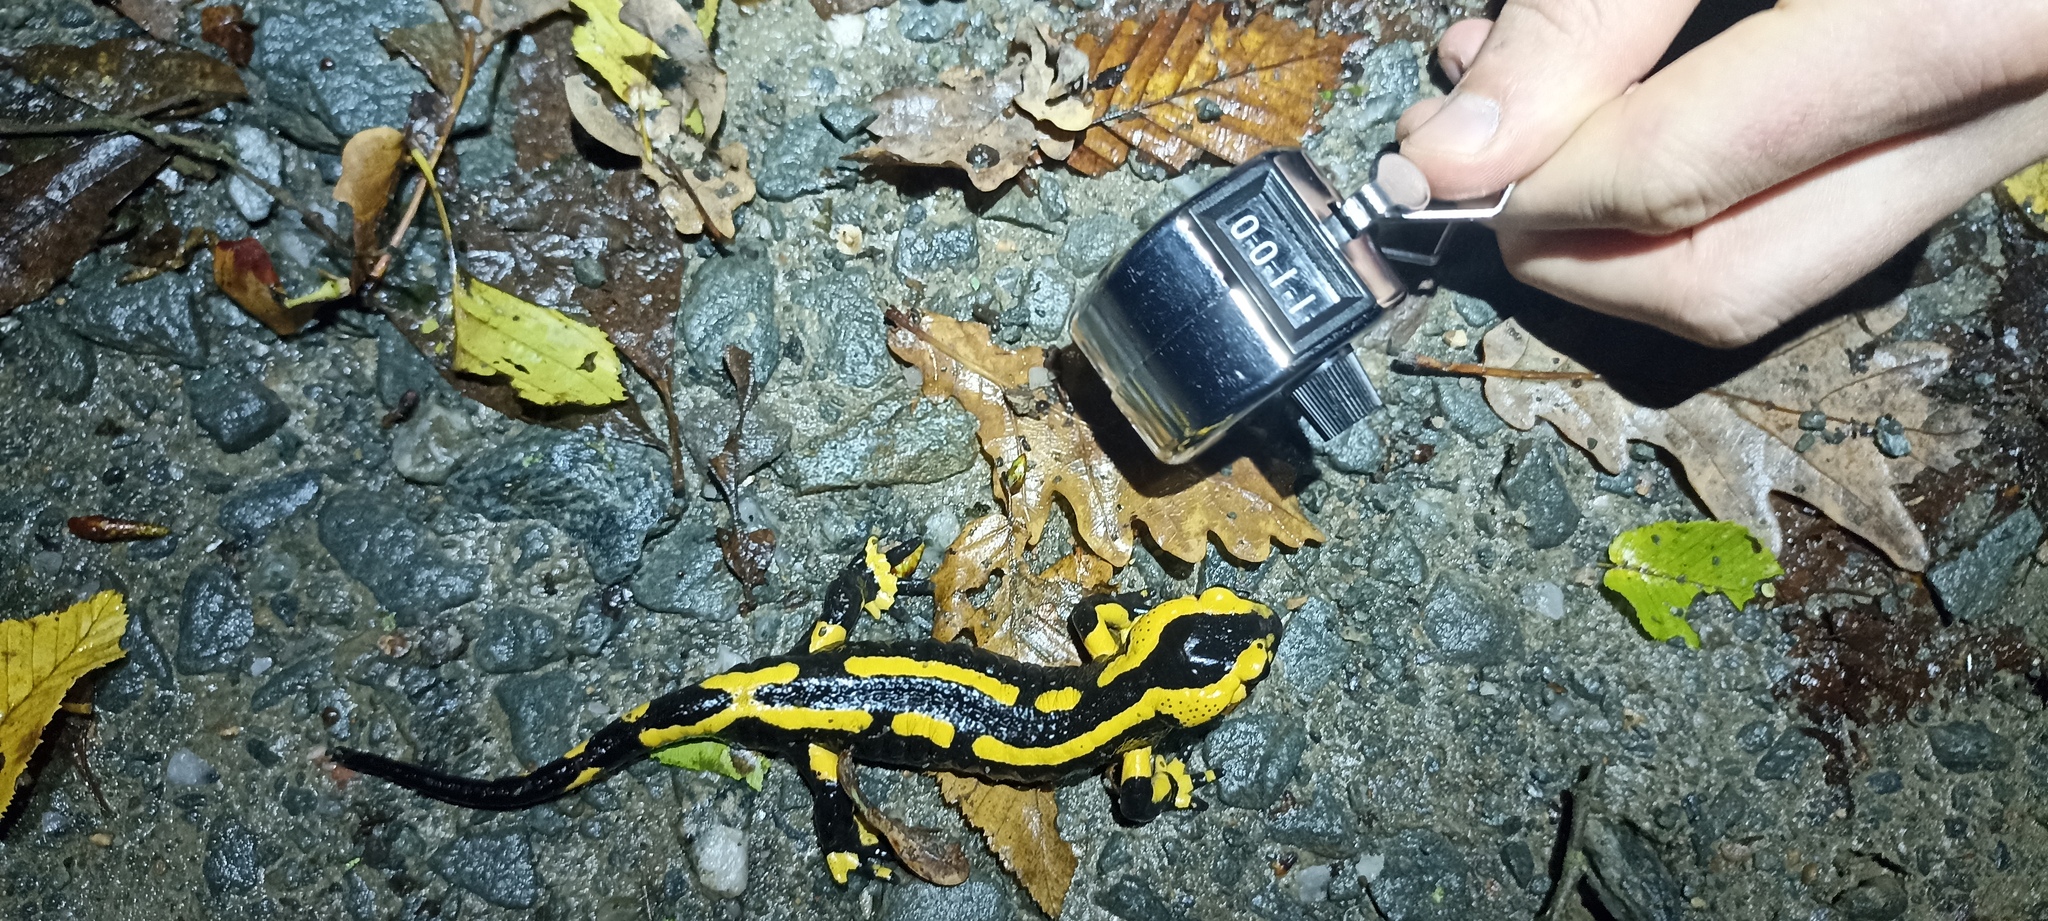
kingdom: Animalia
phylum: Chordata
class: Amphibia
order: Caudata
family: Salamandridae
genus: Salamandra
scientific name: Salamandra salamandra
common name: Fire salamander
